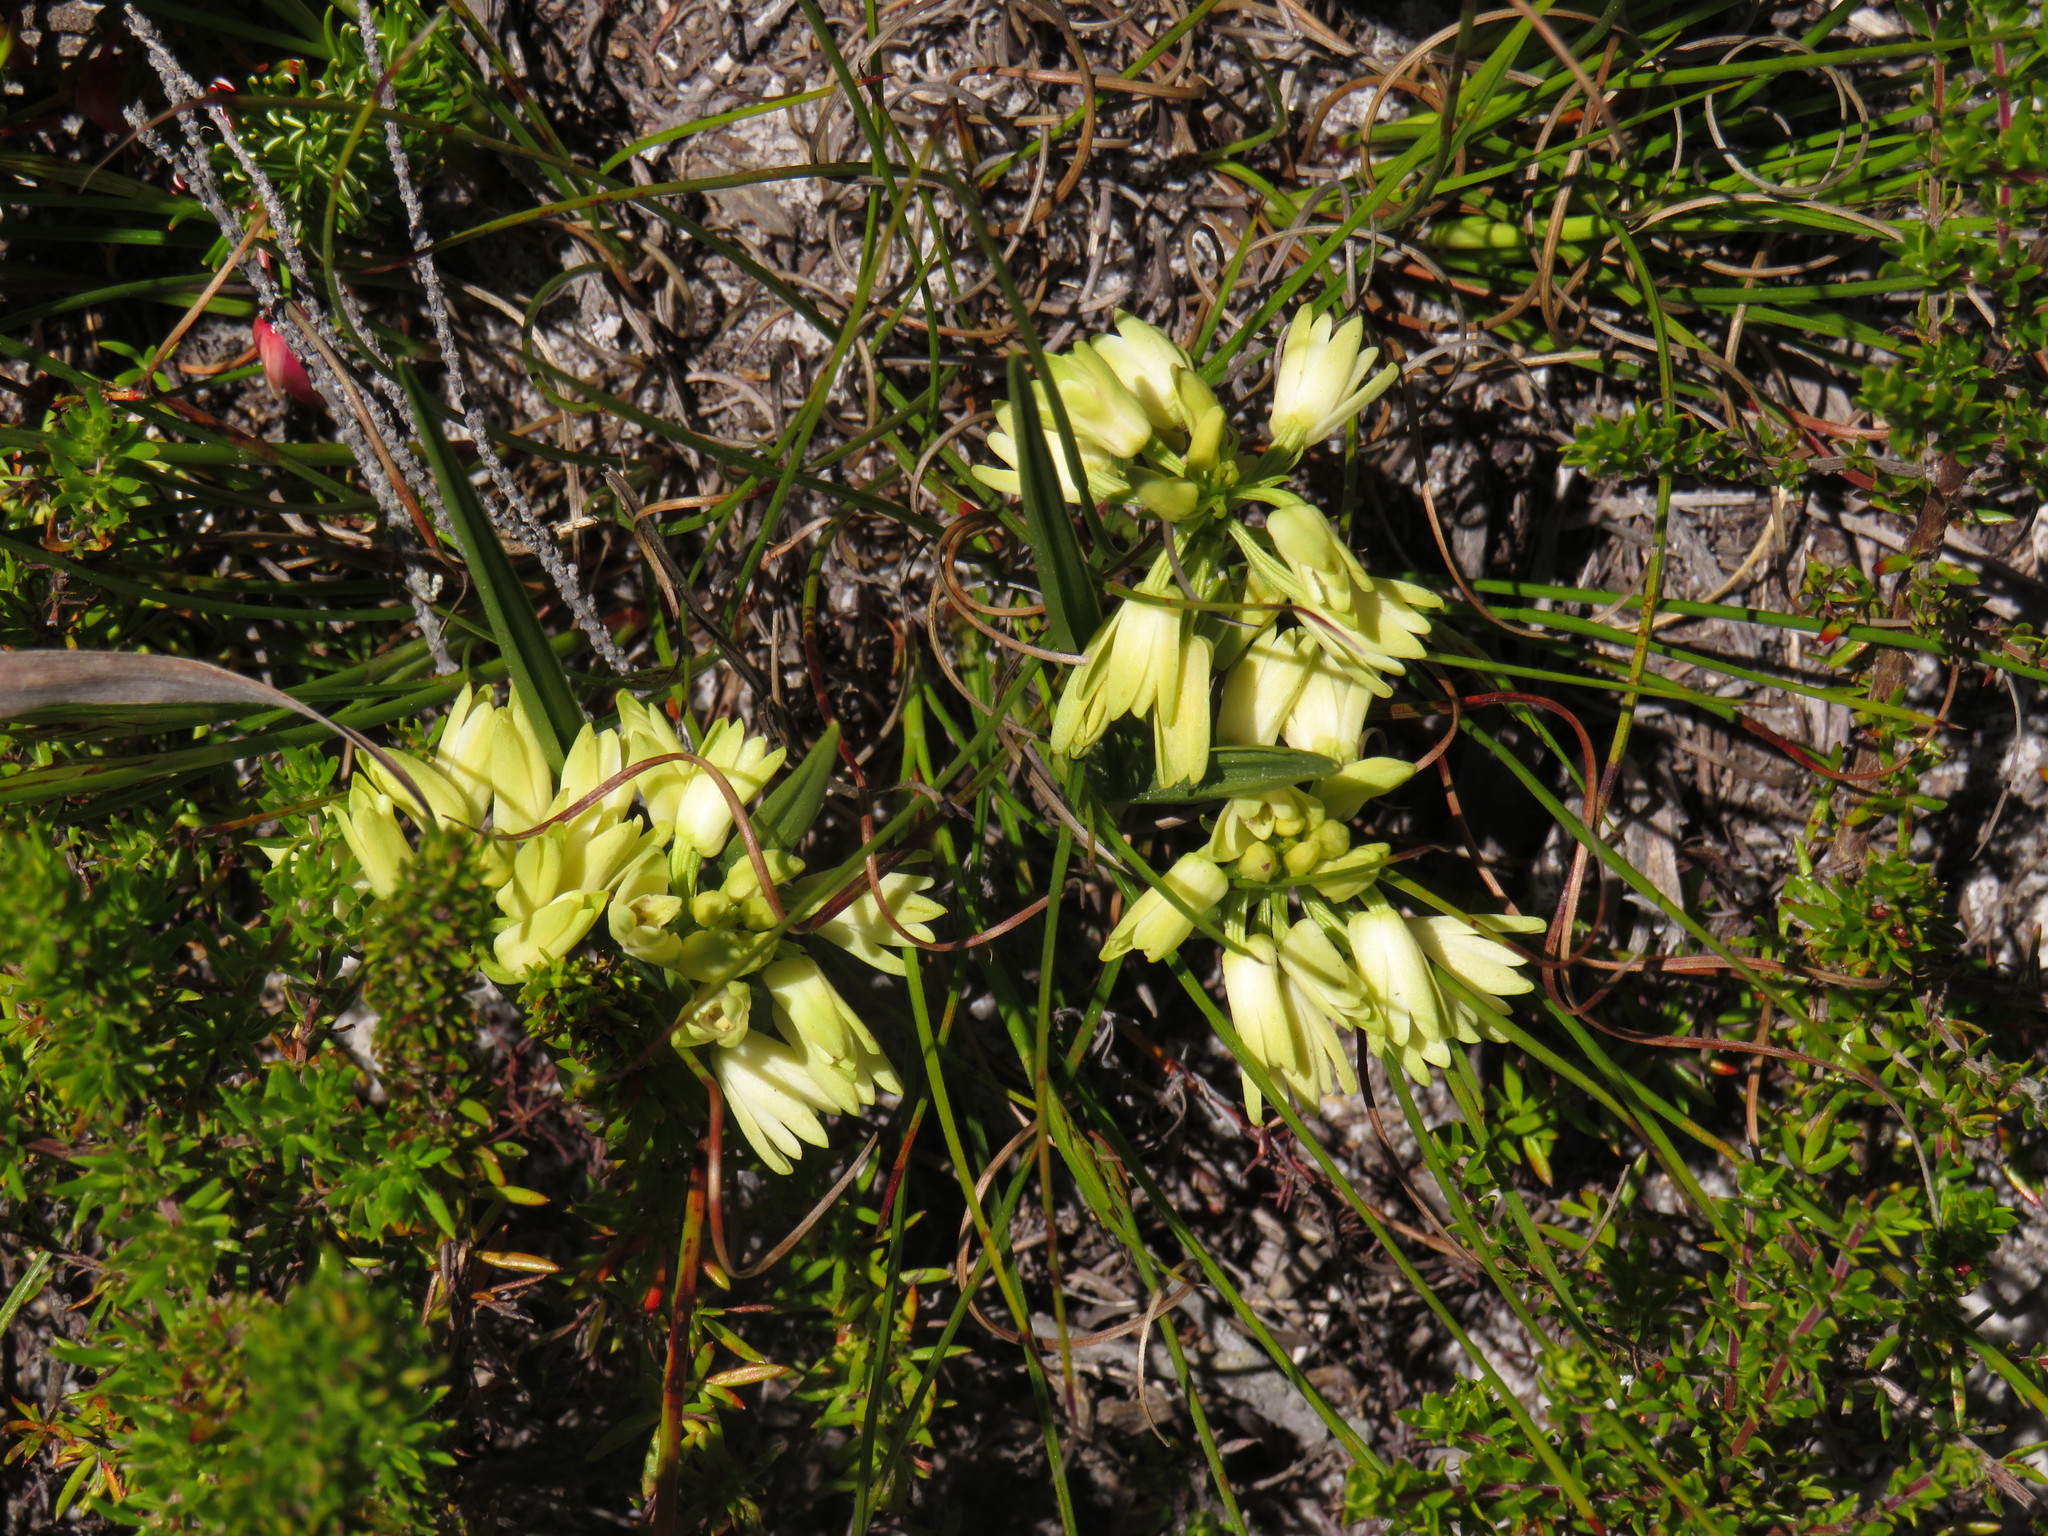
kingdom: Plantae
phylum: Tracheophyta
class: Liliopsida
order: Asparagales
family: Orchidaceae
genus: Eulophia
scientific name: Eulophia aculeata
